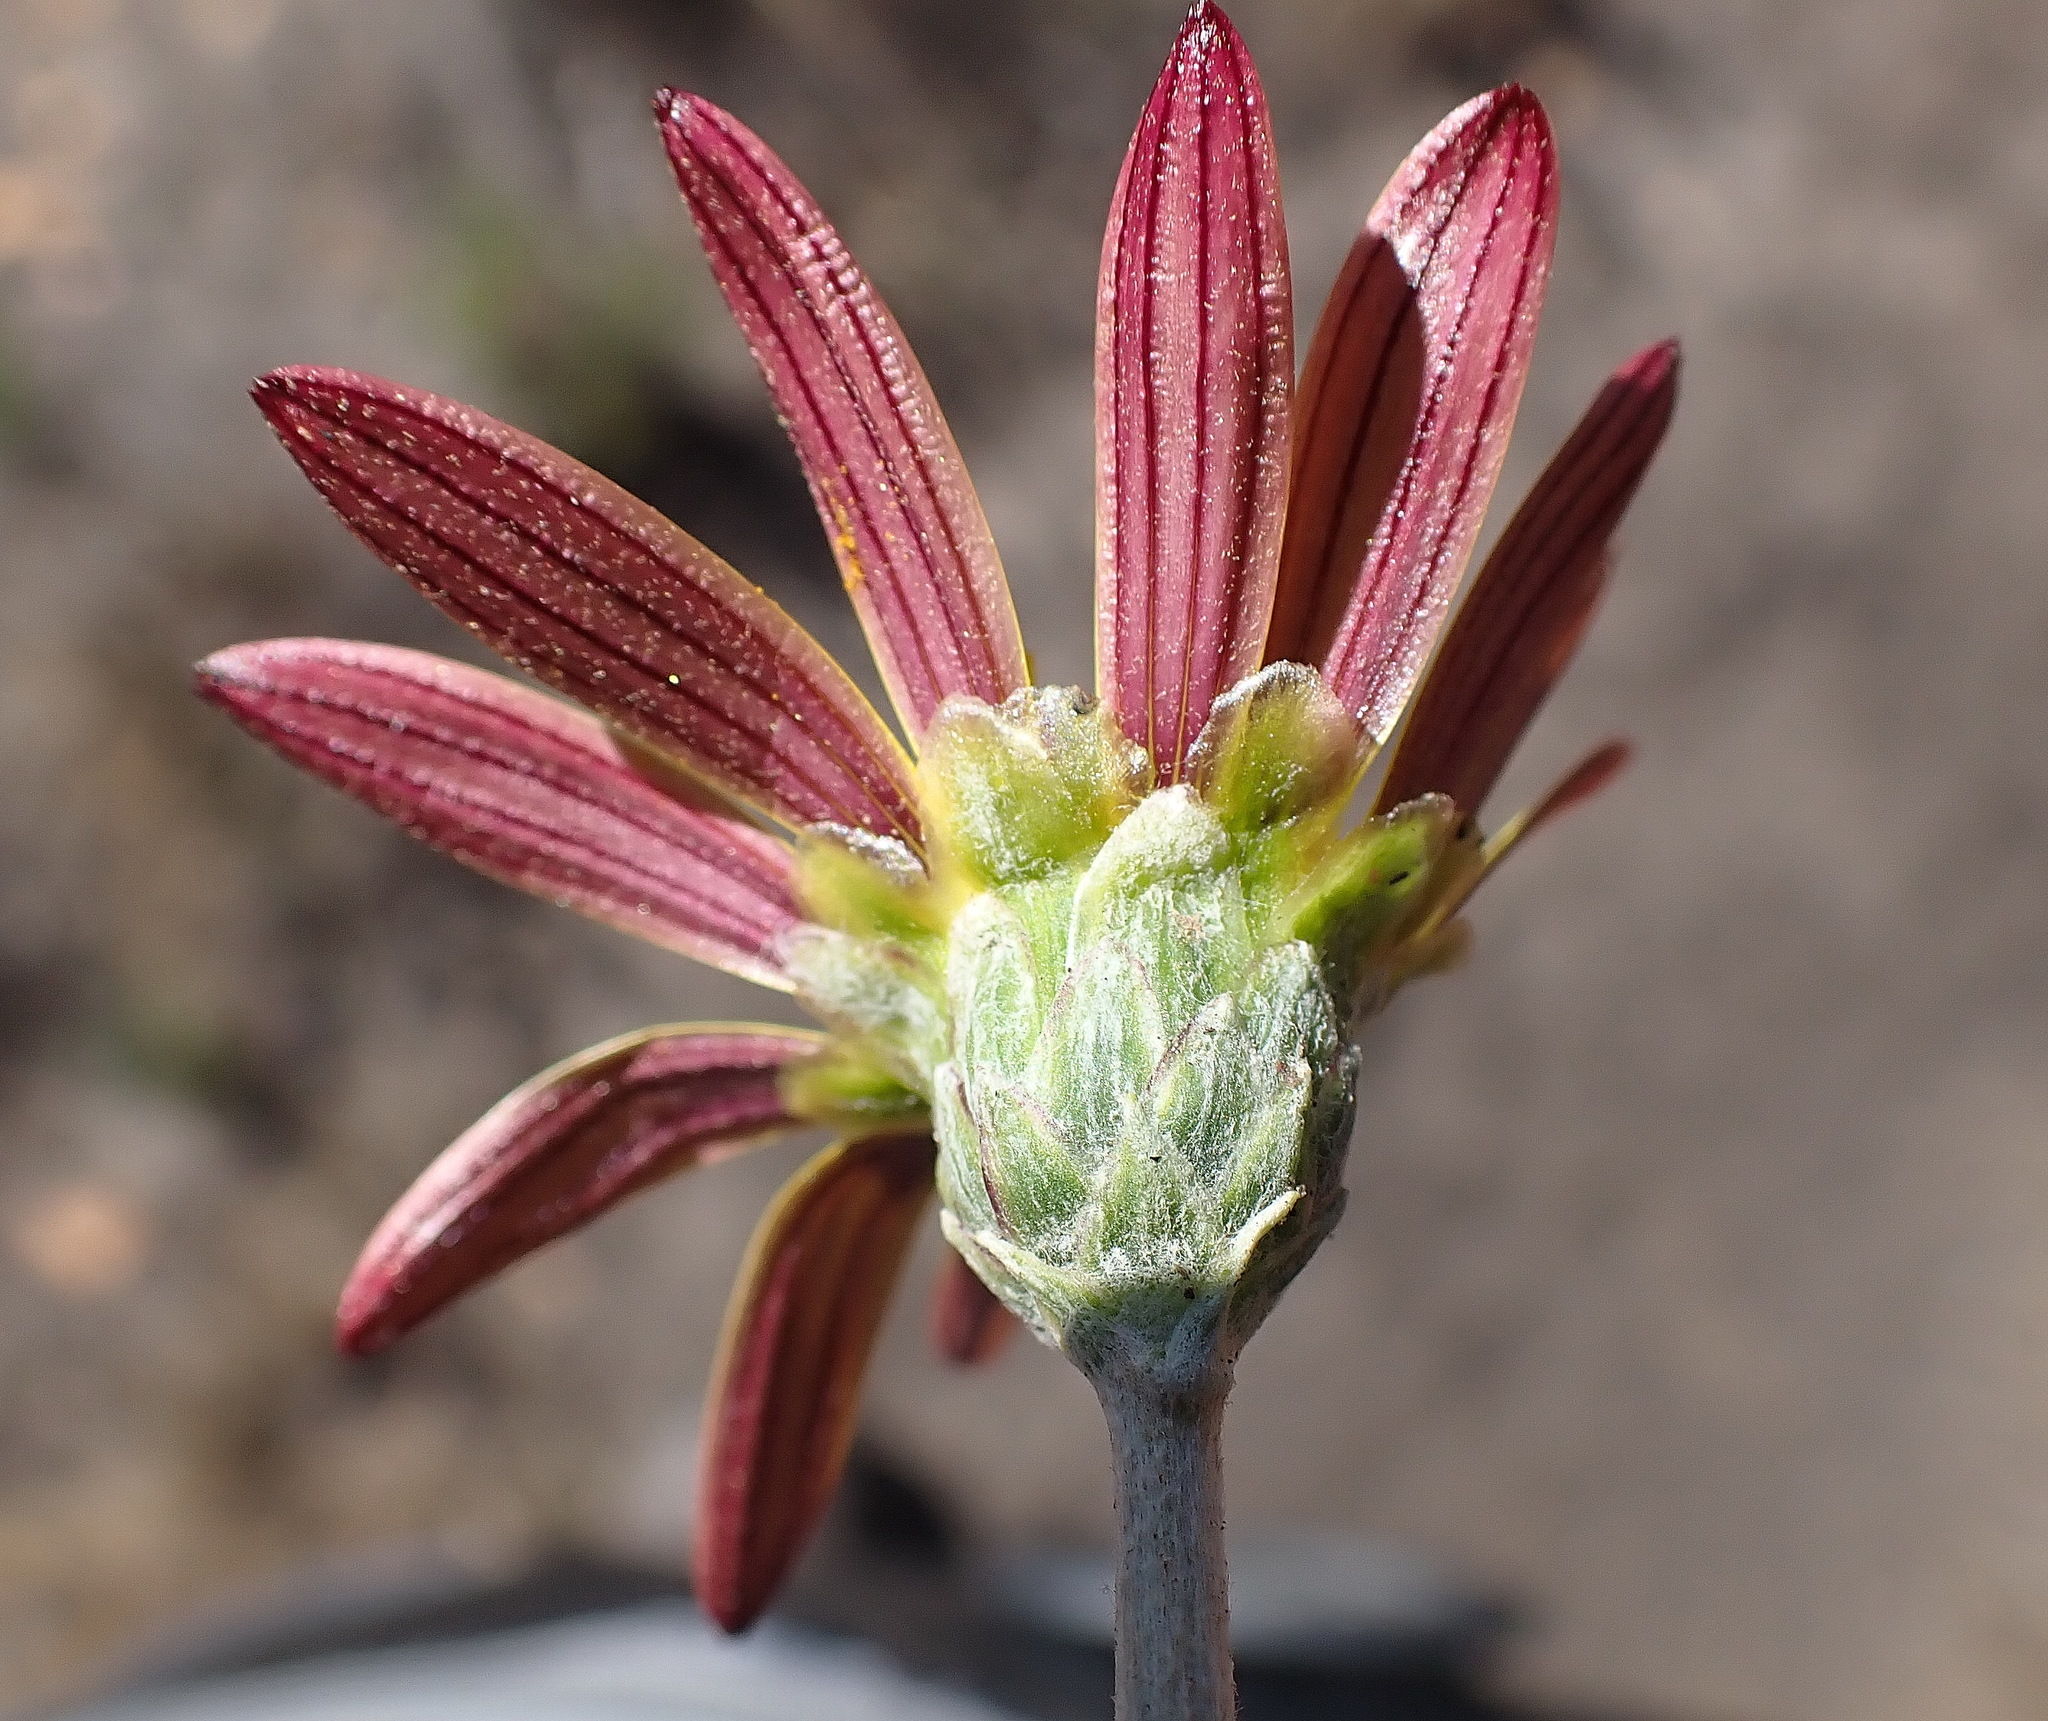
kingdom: Plantae
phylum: Tracheophyta
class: Magnoliopsida
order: Asterales
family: Asteraceae
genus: Haplocarpha
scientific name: Haplocarpha lyrata
